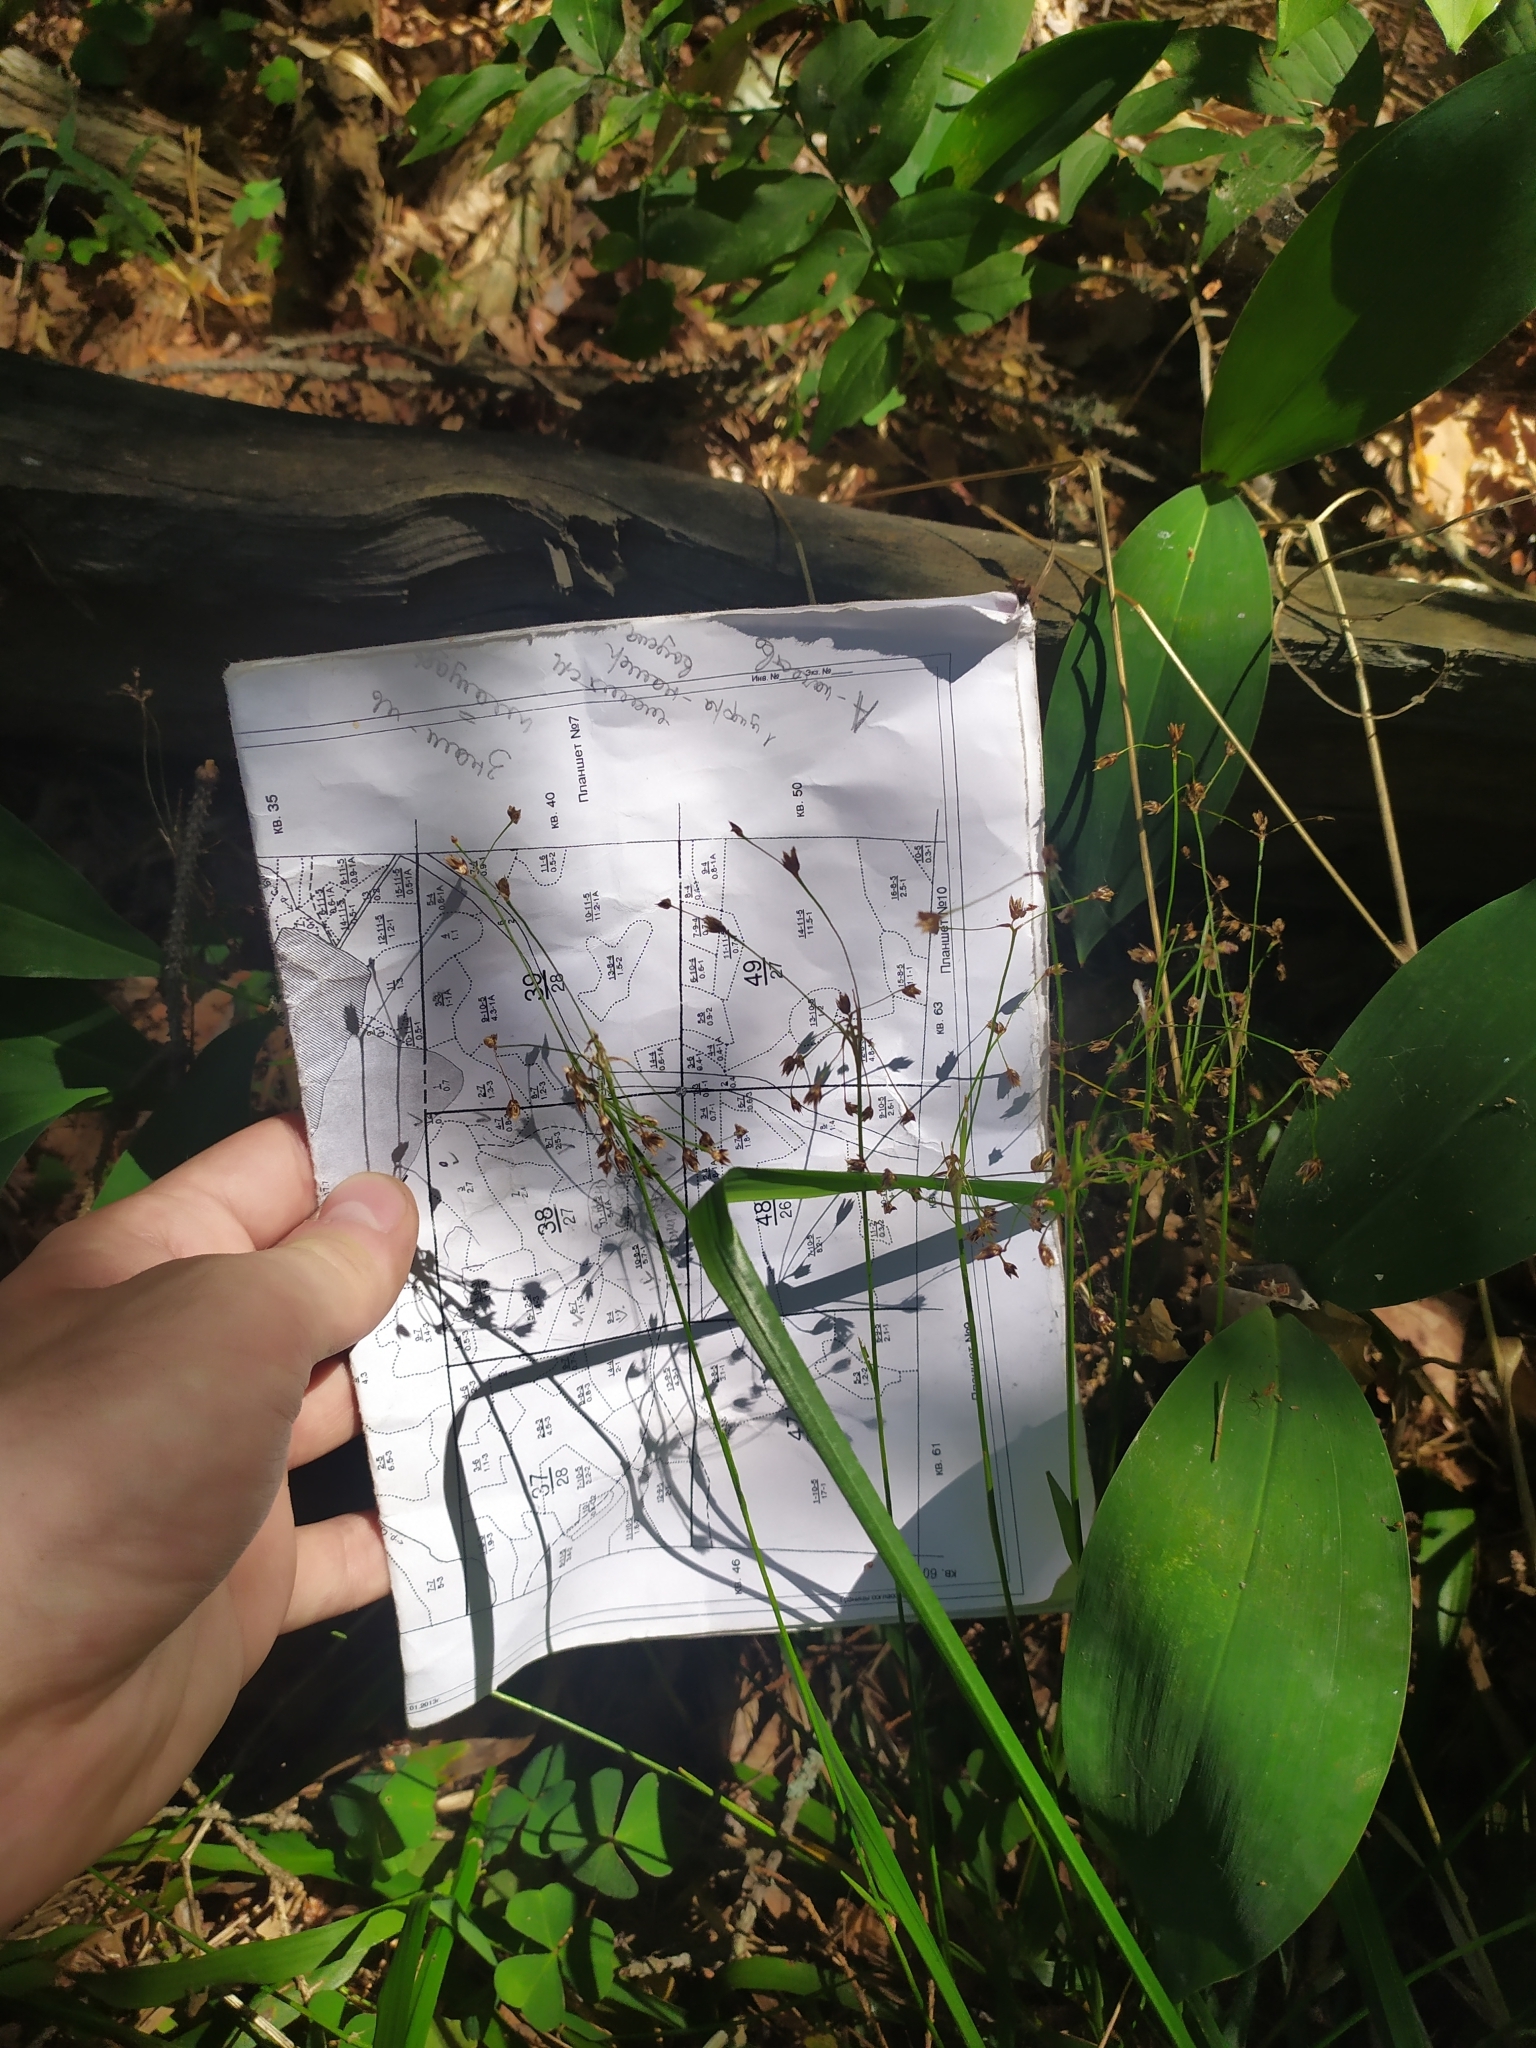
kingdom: Plantae
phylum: Tracheophyta
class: Liliopsida
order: Poales
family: Juncaceae
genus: Luzula
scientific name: Luzula pilosa
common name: Hairy wood-rush
